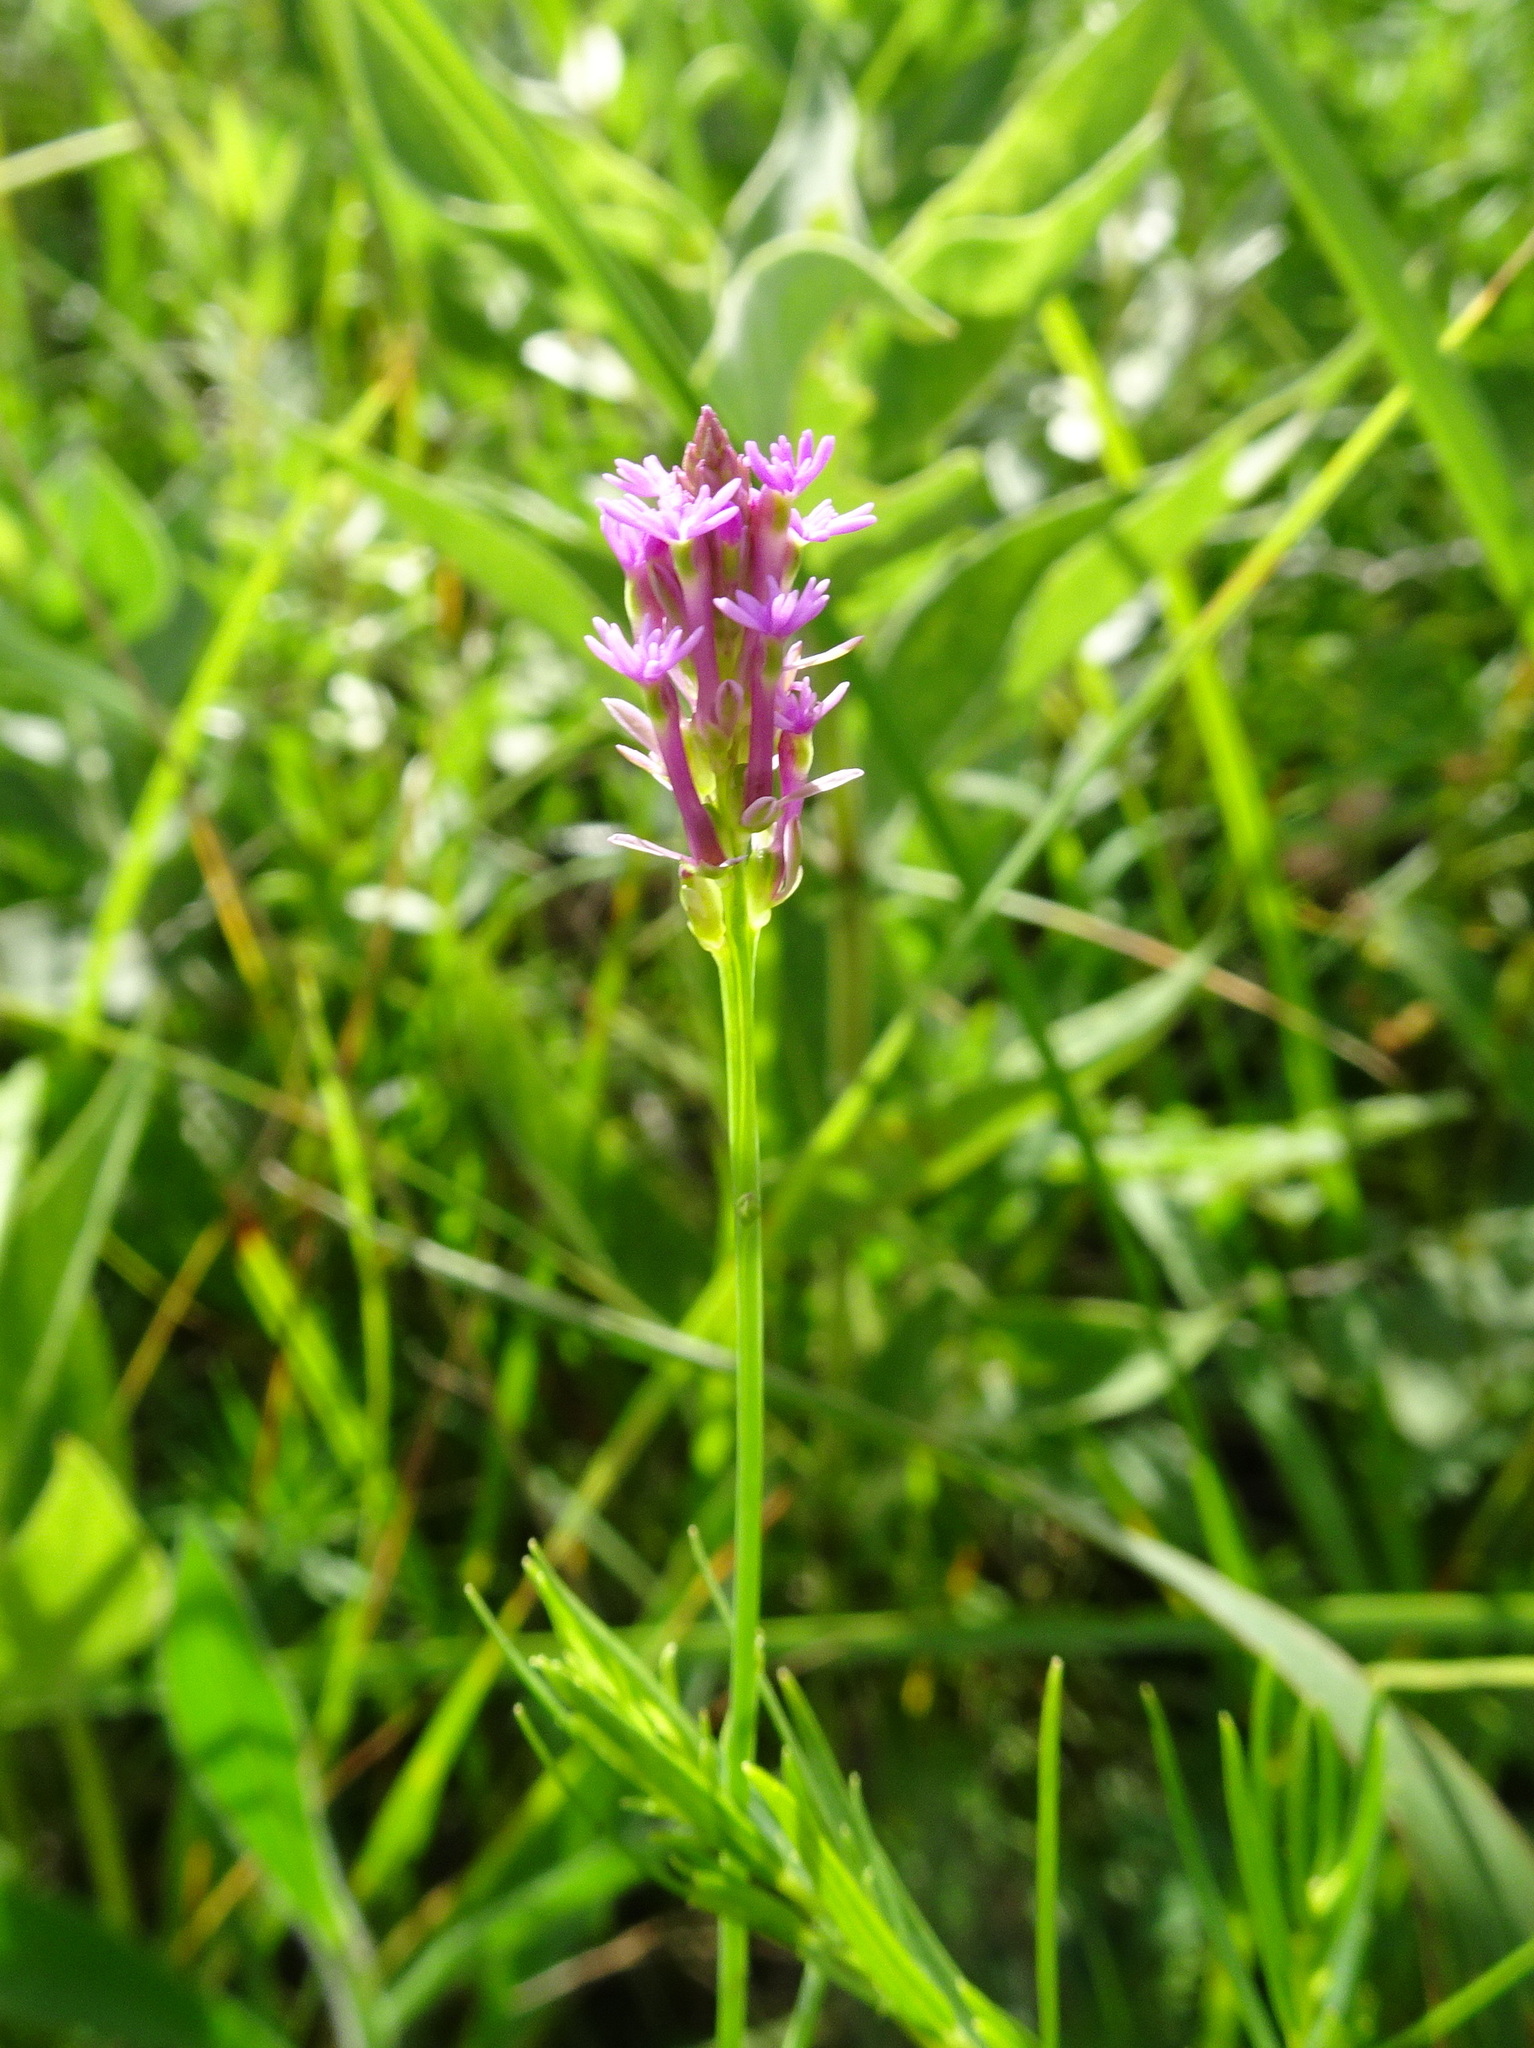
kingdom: Plantae
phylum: Tracheophyta
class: Magnoliopsida
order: Fabales
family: Polygalaceae
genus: Polygala
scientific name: Polygala incarnata
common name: Pink milkwort
